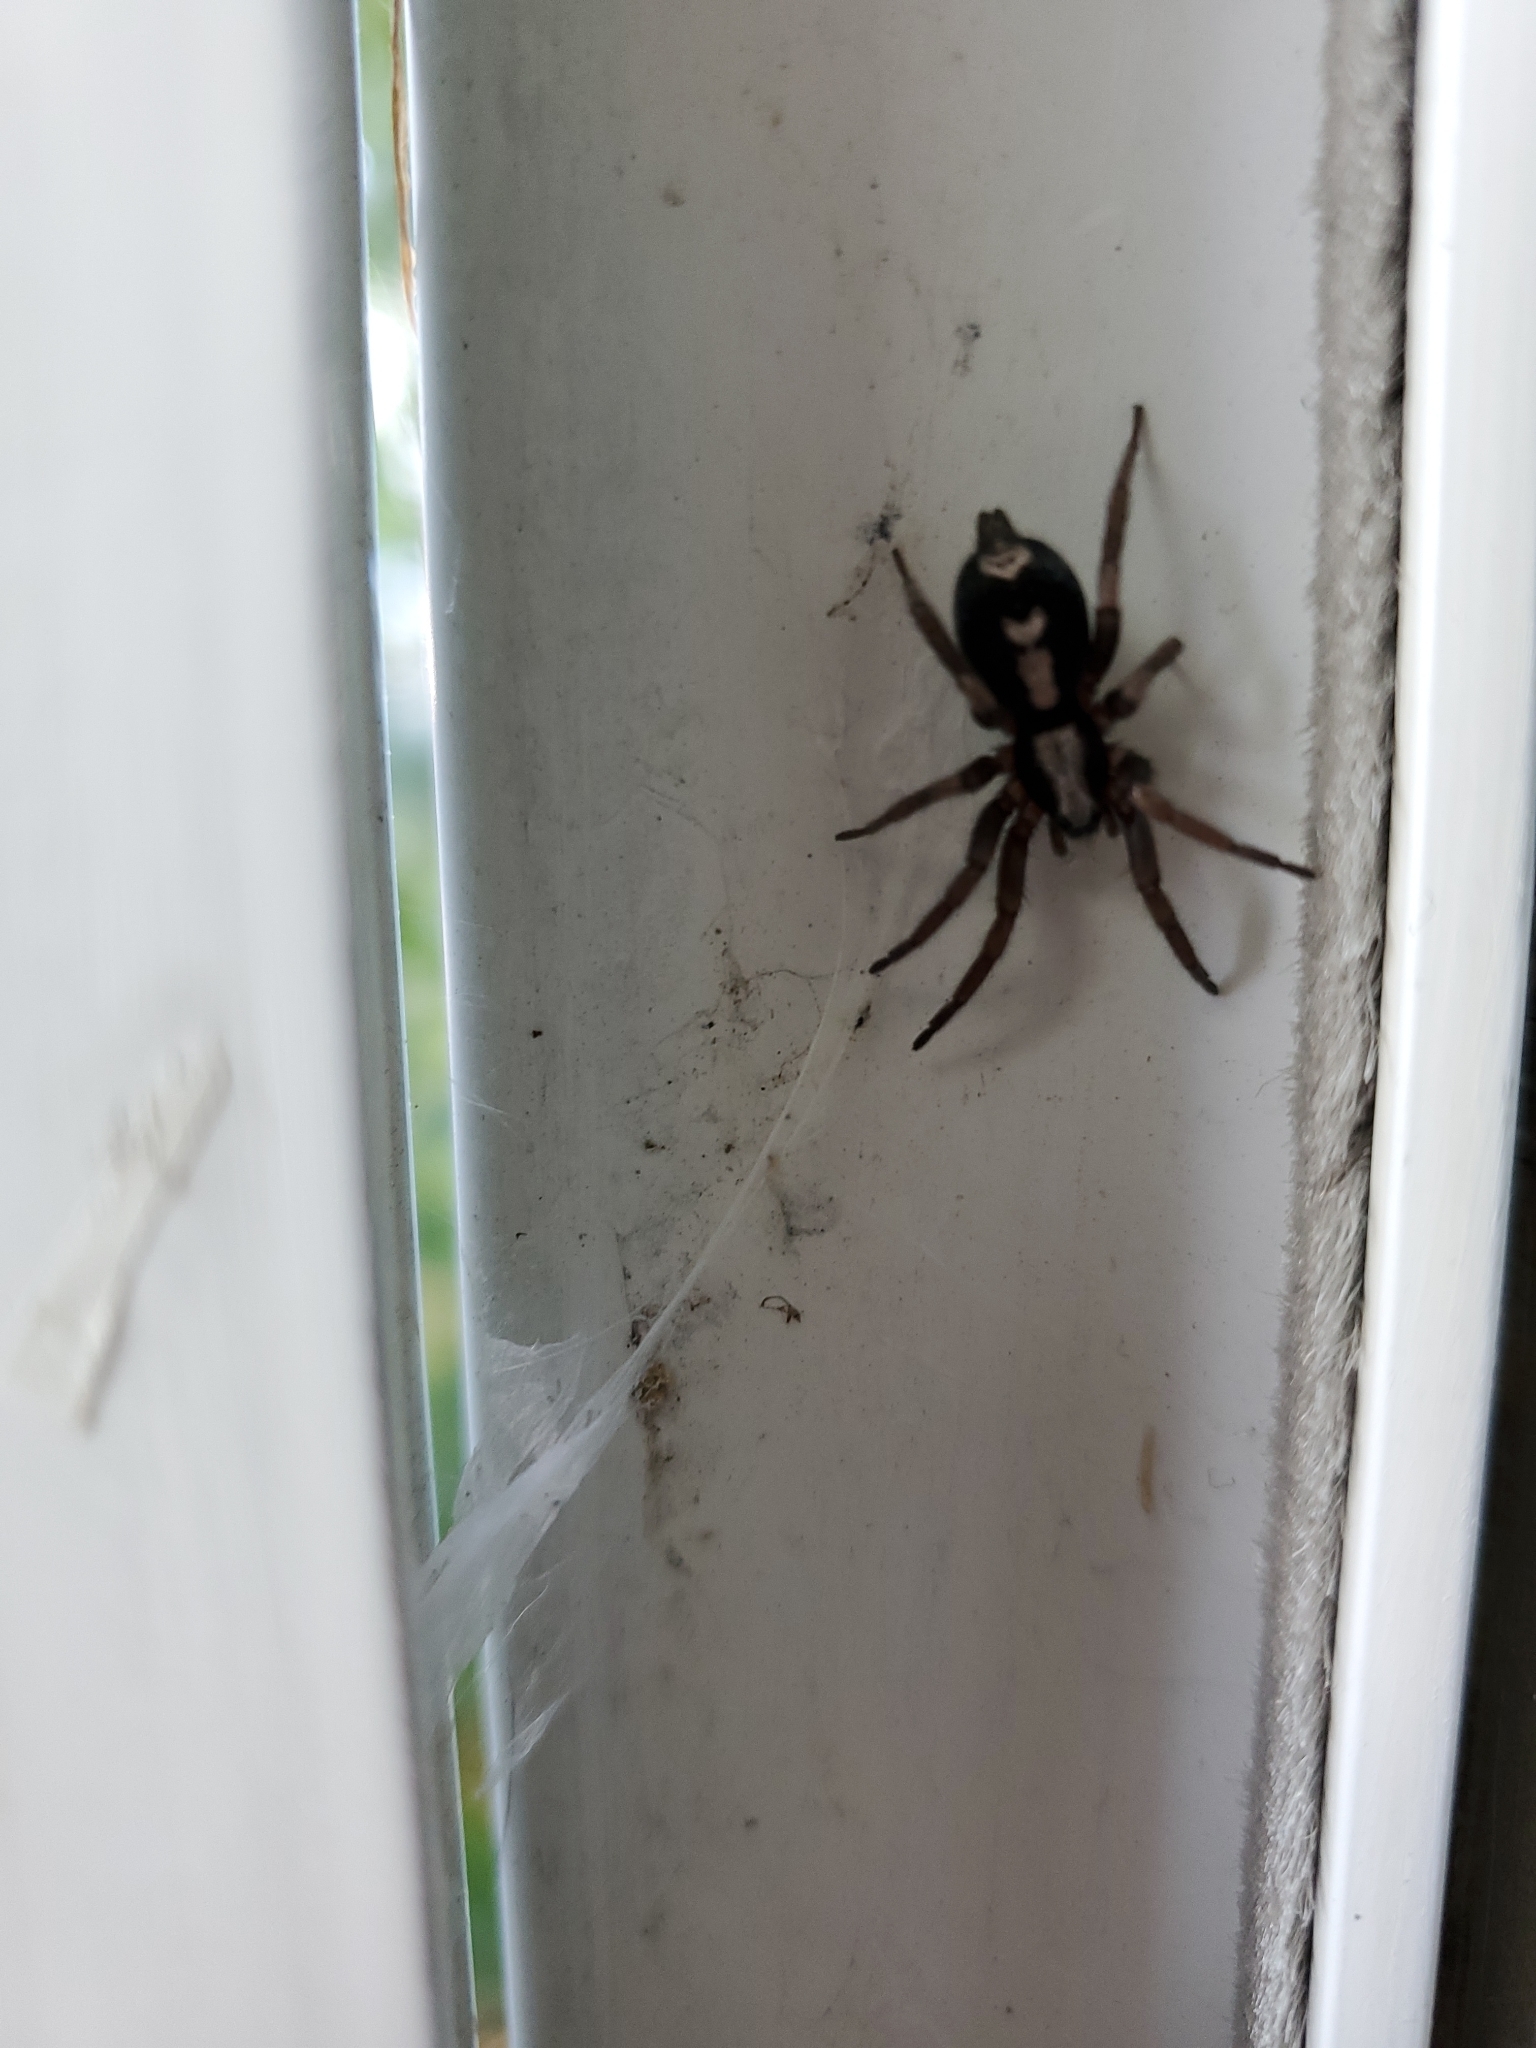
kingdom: Animalia
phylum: Arthropoda
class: Arachnida
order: Araneae
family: Gnaphosidae
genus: Herpyllus
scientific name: Herpyllus ecclesiasticus
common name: Eastern parson spider
